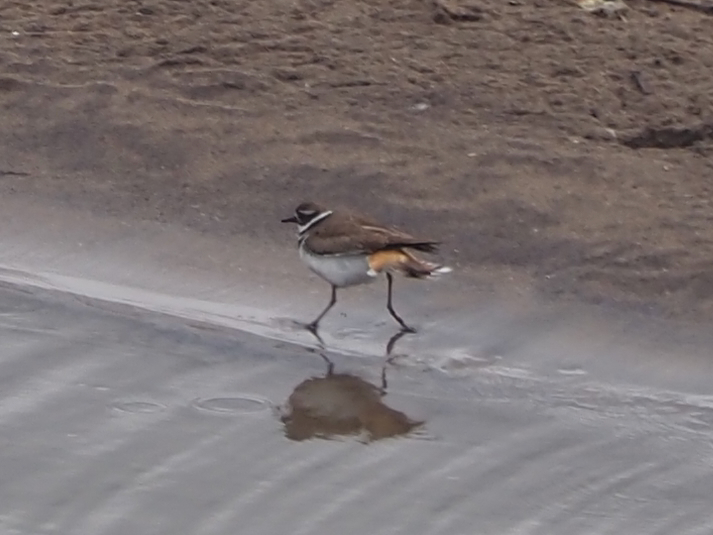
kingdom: Animalia
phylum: Chordata
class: Aves
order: Charadriiformes
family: Charadriidae
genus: Charadrius
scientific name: Charadrius vociferus
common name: Killdeer
